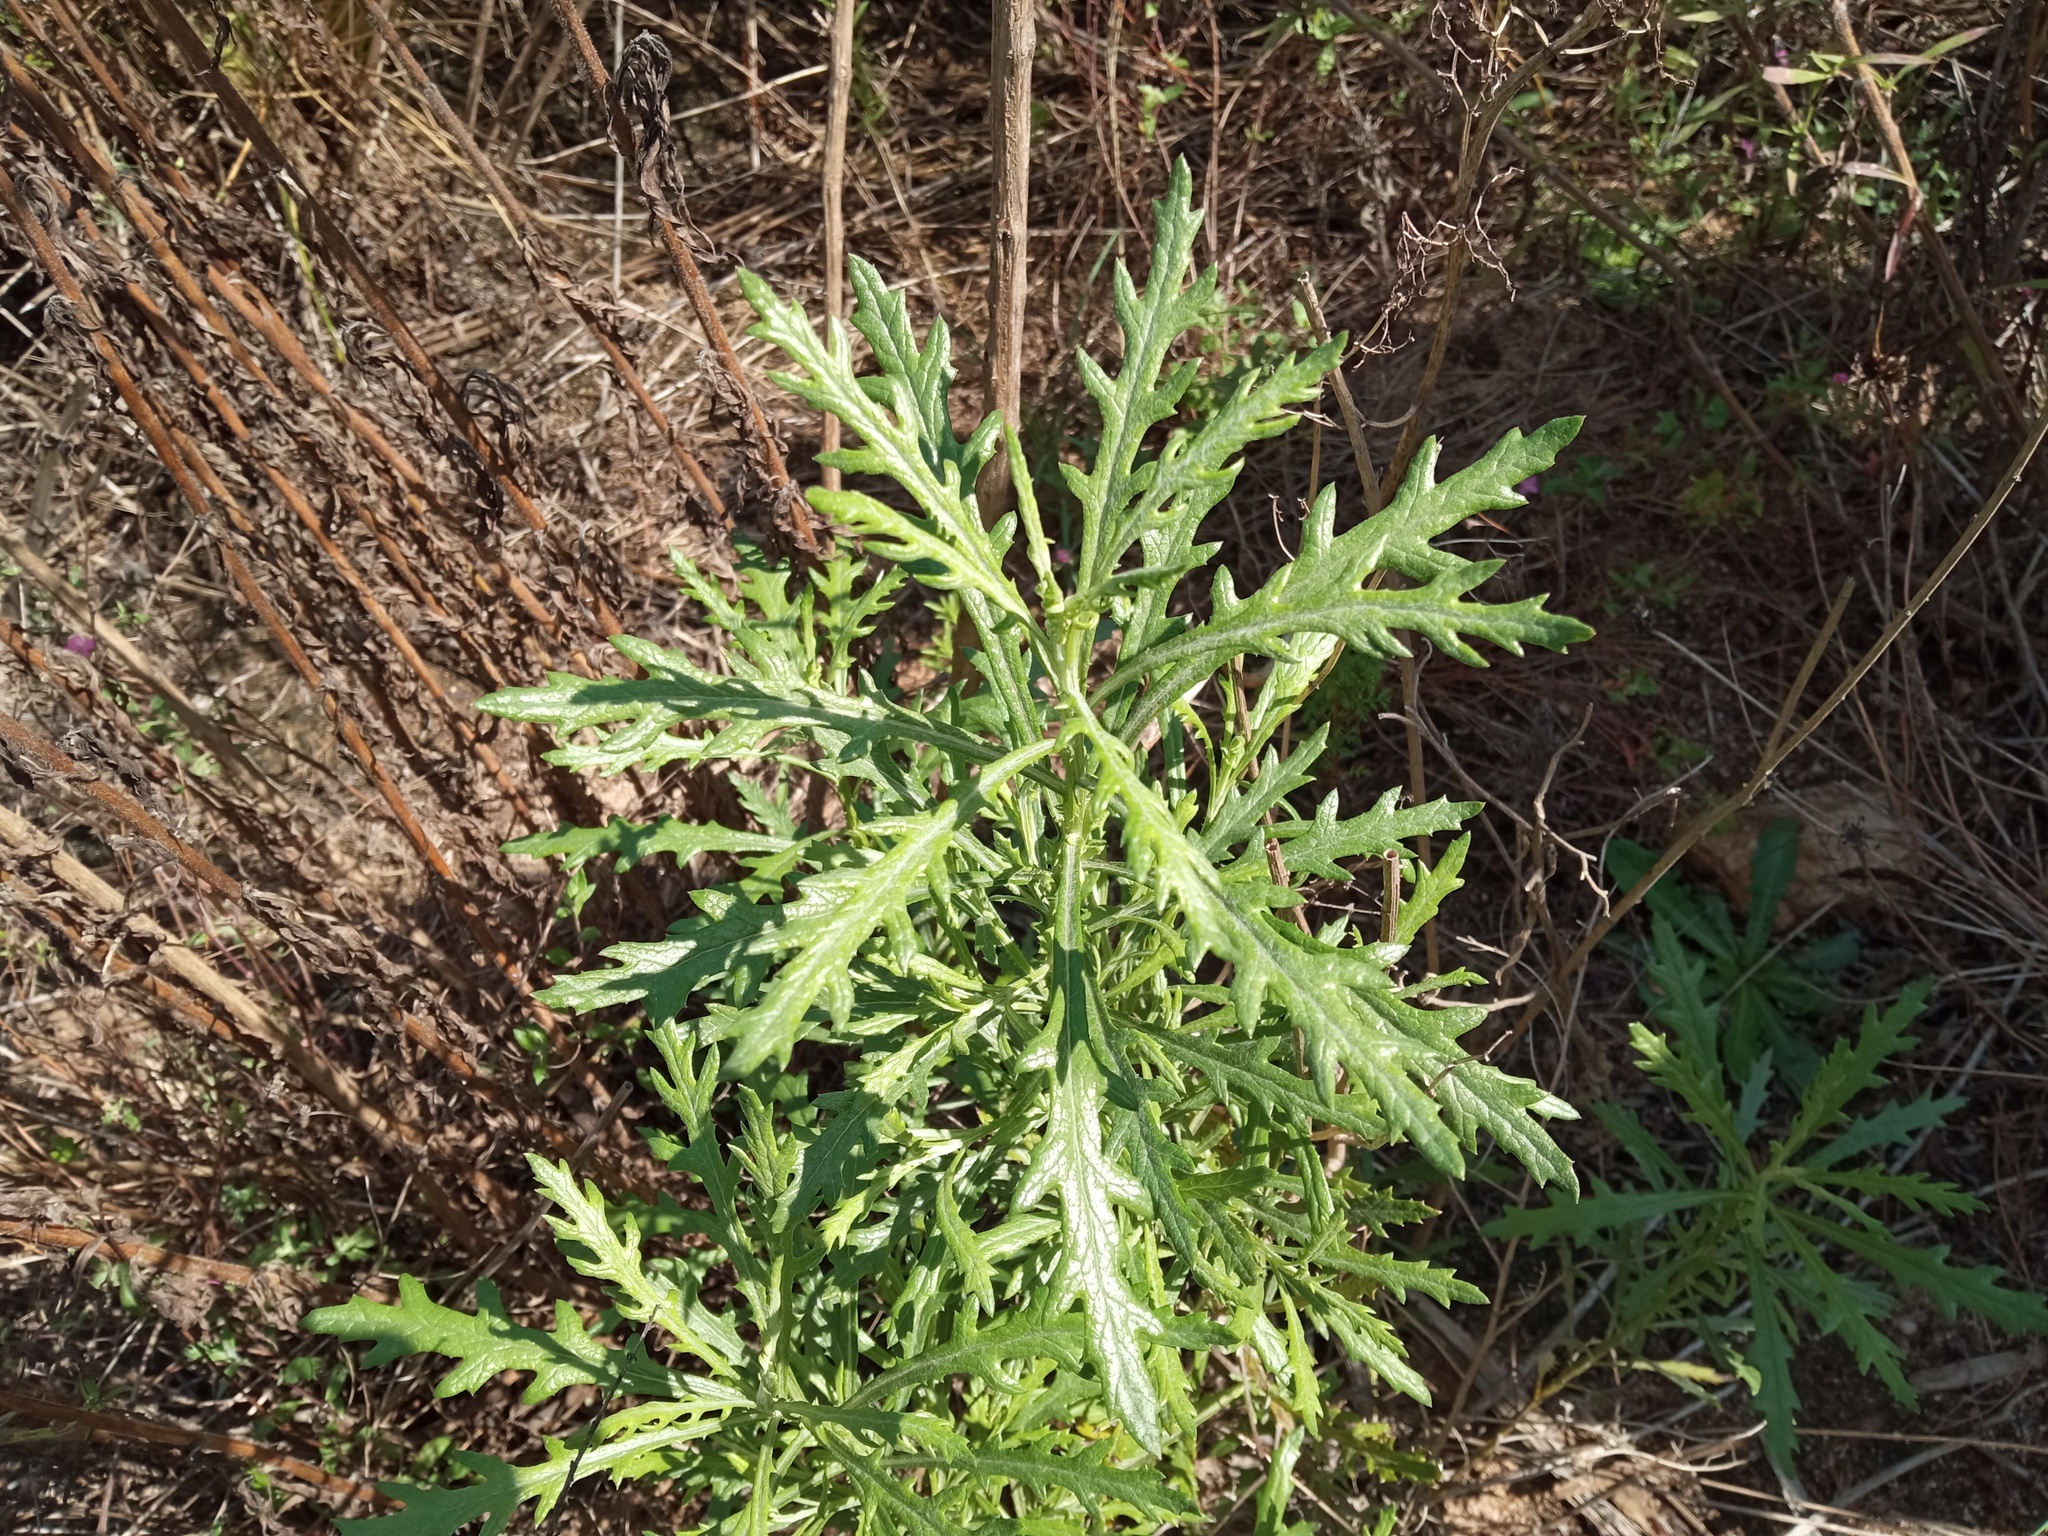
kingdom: Plantae
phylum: Tracheophyta
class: Magnoliopsida
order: Asterales
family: Asteraceae
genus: Senecio
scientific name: Senecio pterophorus
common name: Shoddy ragwort
